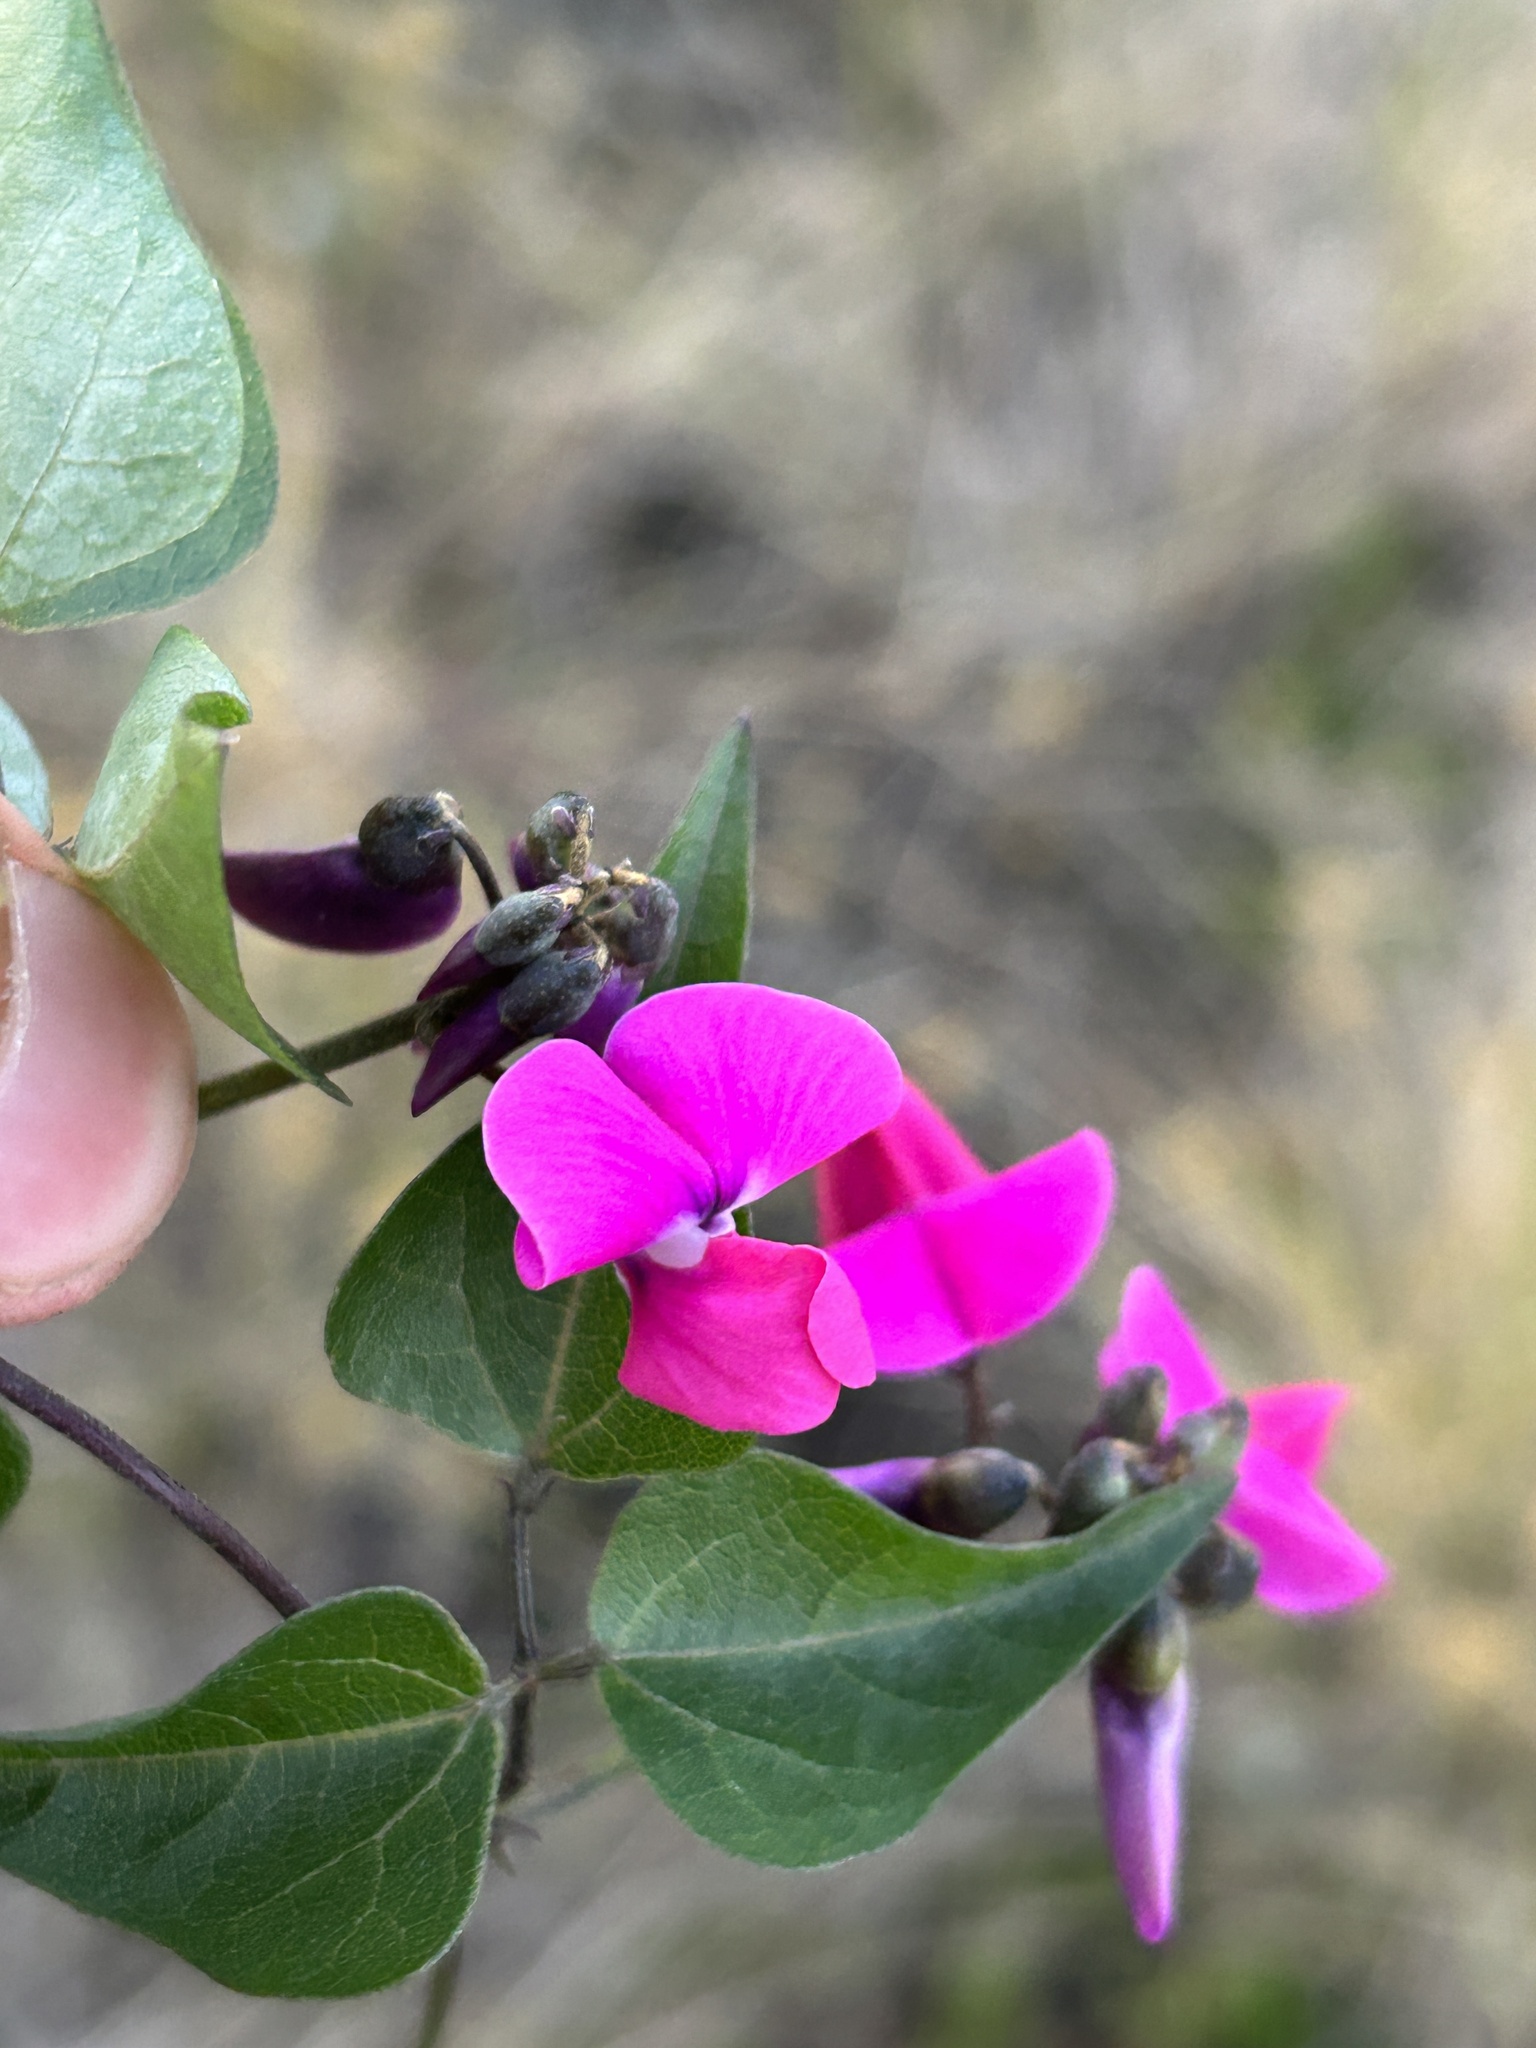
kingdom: Plantae
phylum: Tracheophyta
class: Magnoliopsida
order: Fabales
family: Fabaceae
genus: Dipogon
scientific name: Dipogon lignosus
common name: Okie bean
